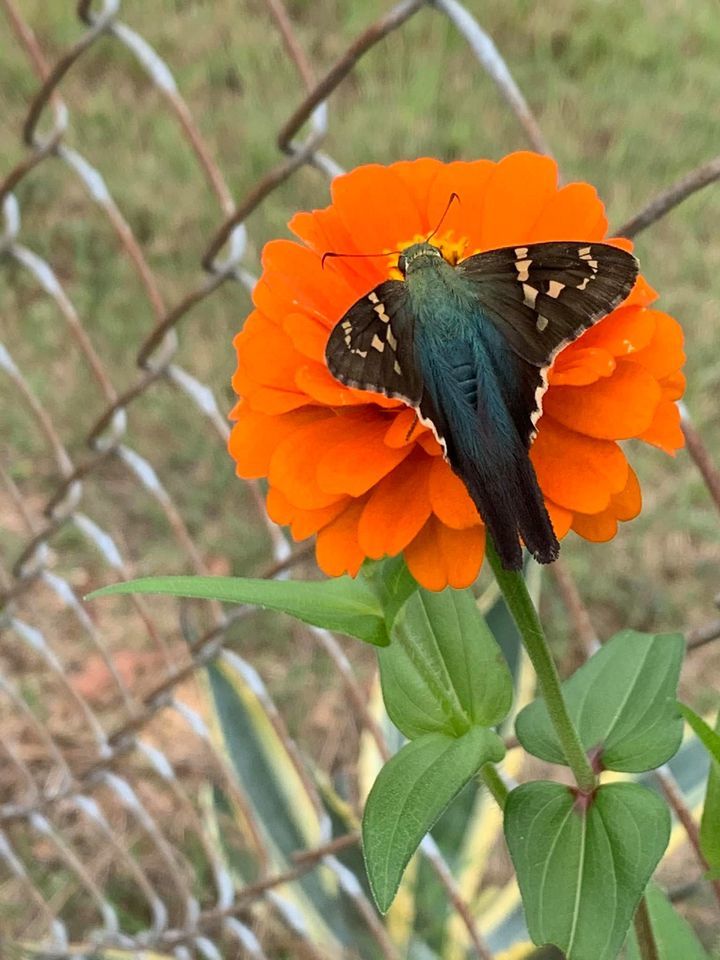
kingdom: Animalia
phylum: Arthropoda
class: Insecta
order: Lepidoptera
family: Hesperiidae
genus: Urbanus
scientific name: Urbanus proteus
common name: Long-tailed skipper
